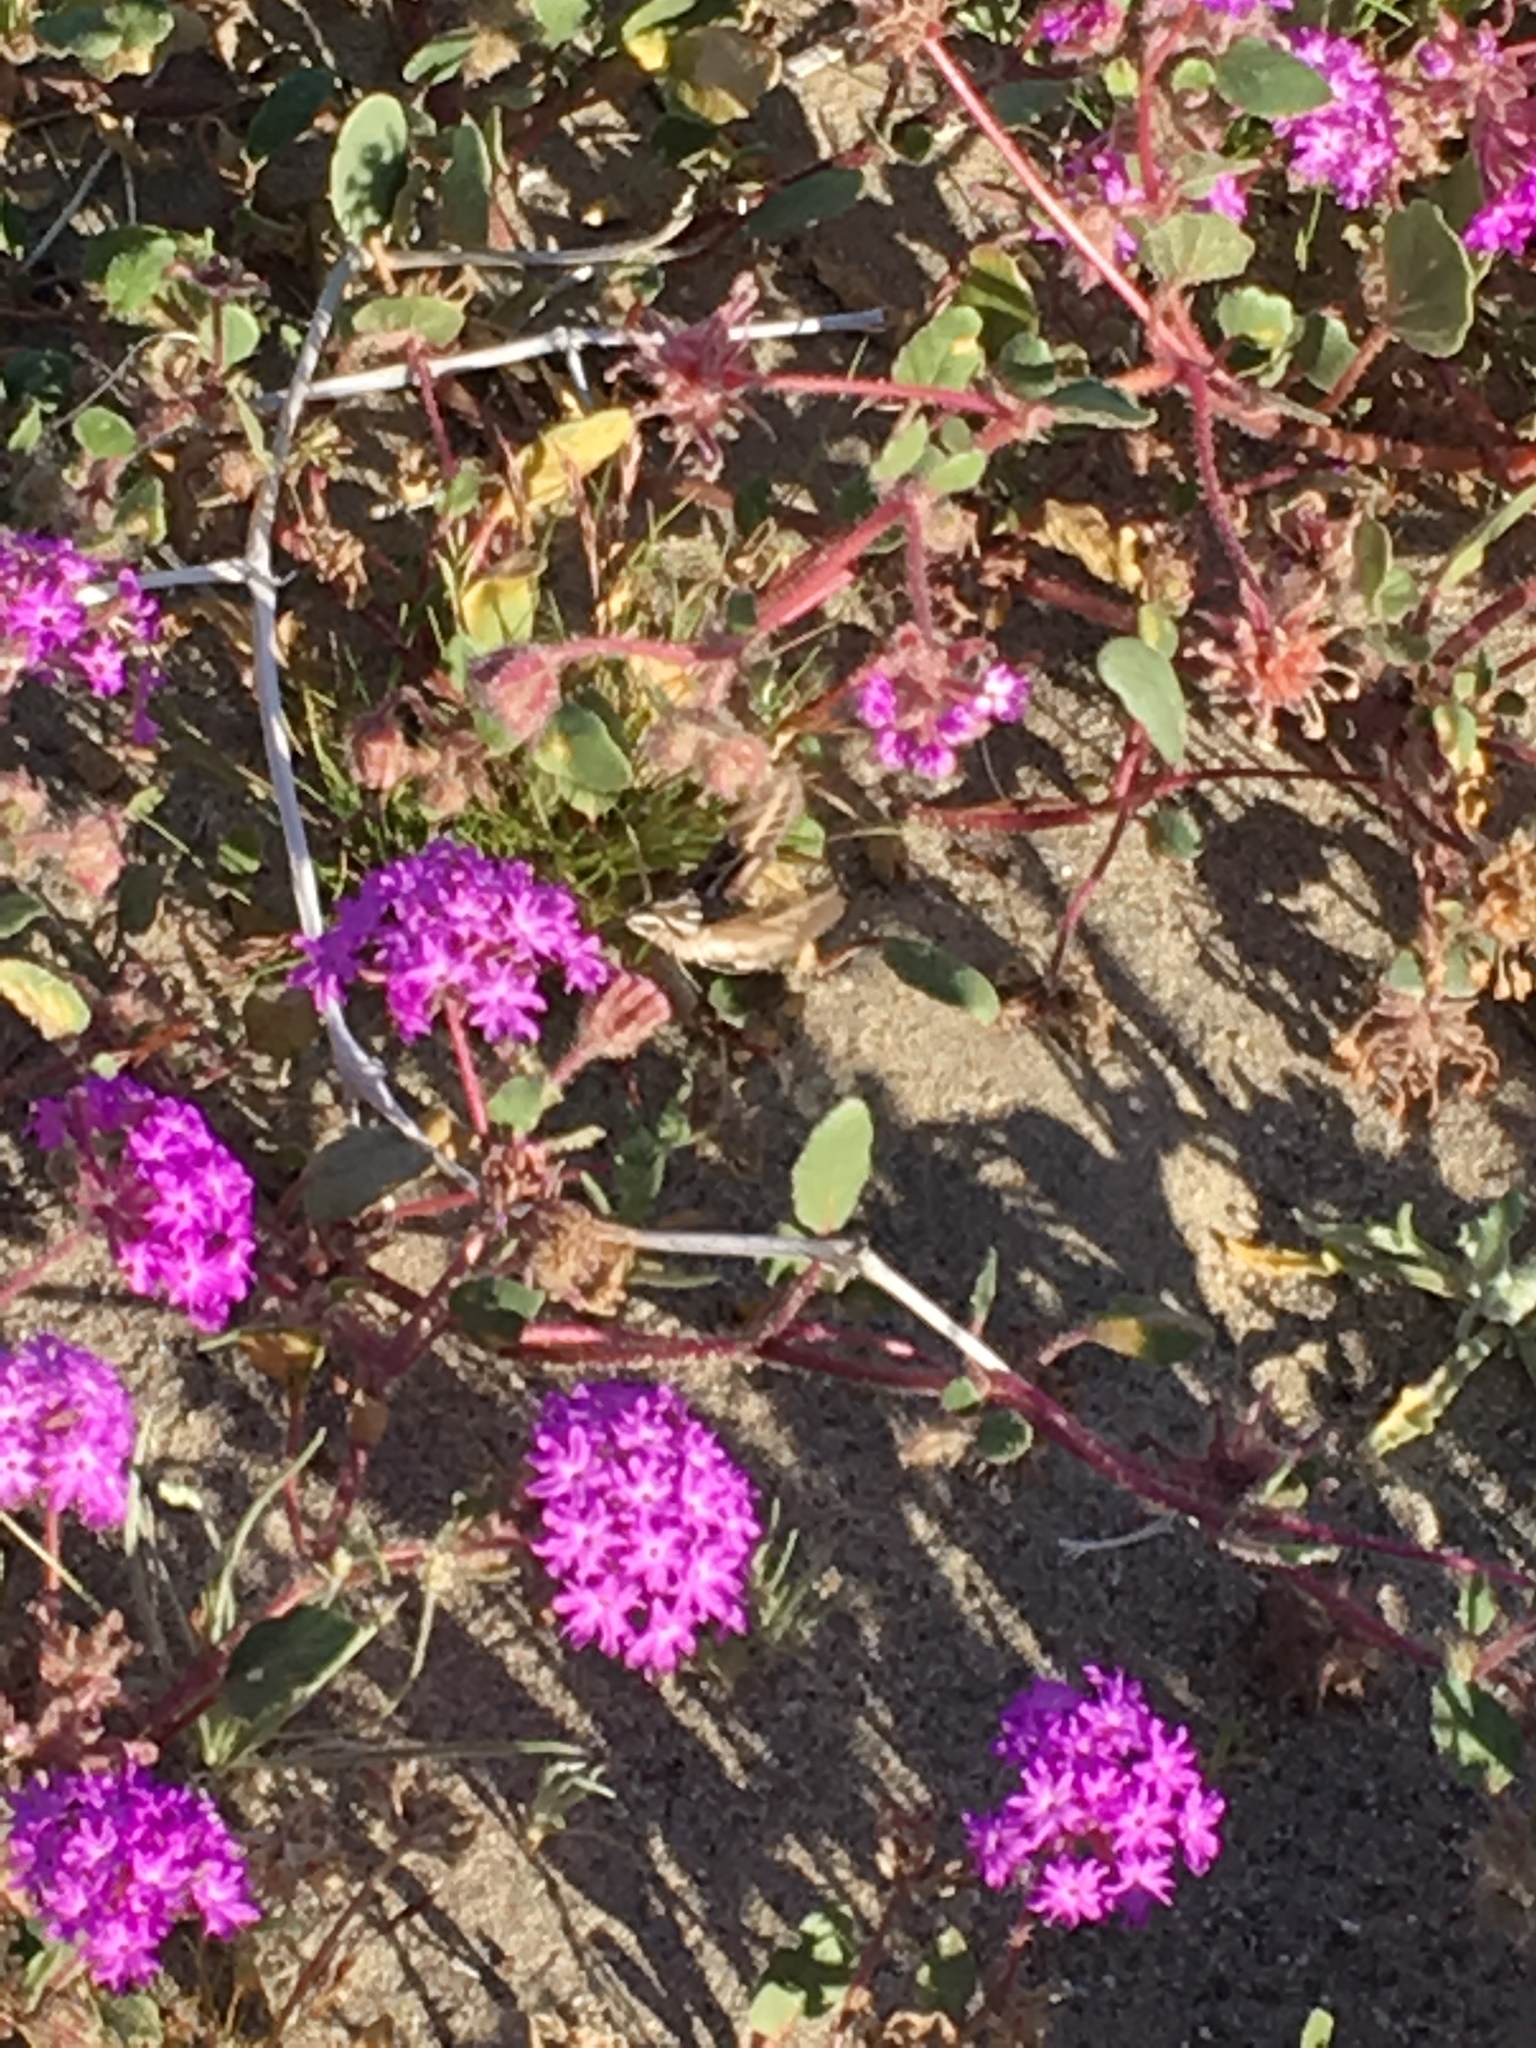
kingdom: Animalia
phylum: Arthropoda
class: Insecta
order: Lepidoptera
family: Sphingidae
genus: Hyles
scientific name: Hyles lineata
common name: White-lined sphinx
